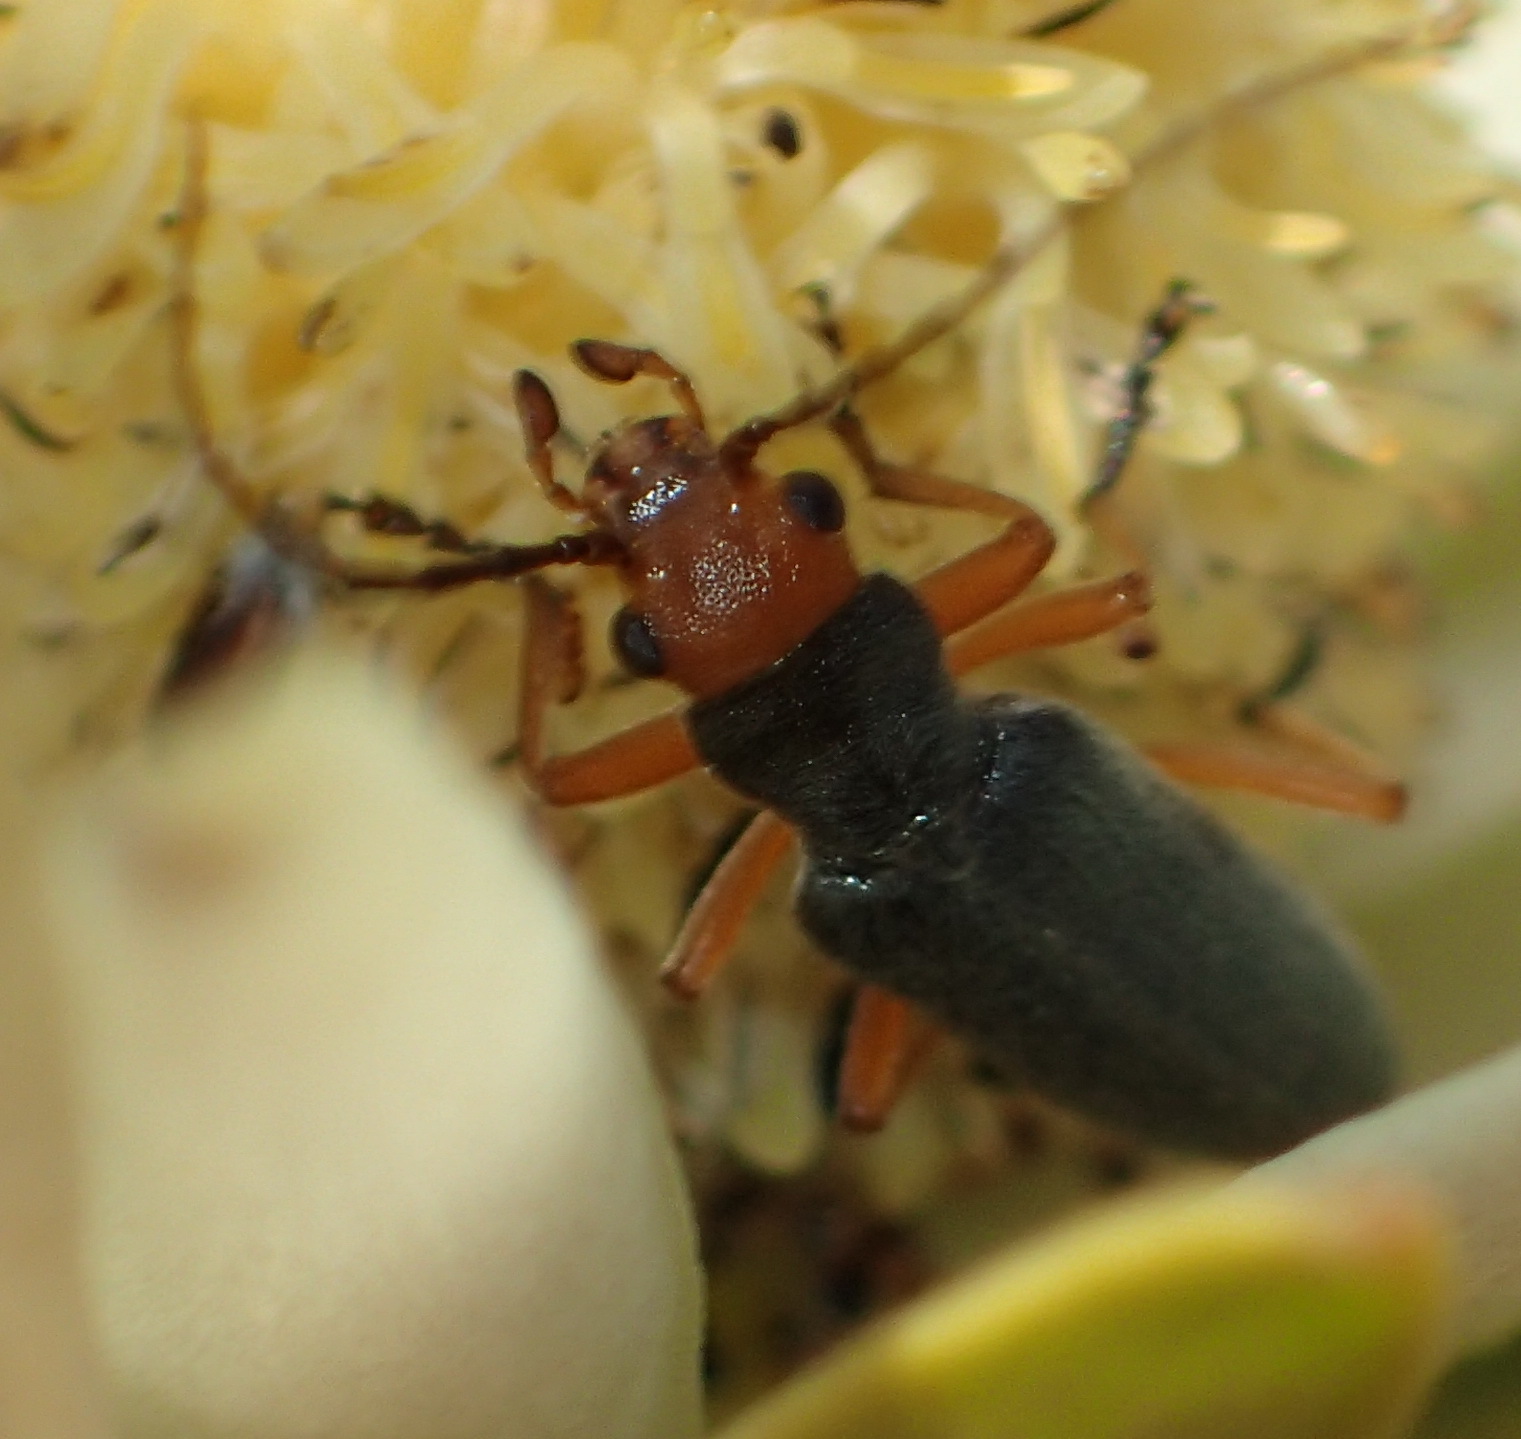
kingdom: Animalia
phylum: Arthropoda
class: Insecta
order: Coleoptera
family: Oedemeridae
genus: Melananthia
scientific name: Melananthia
